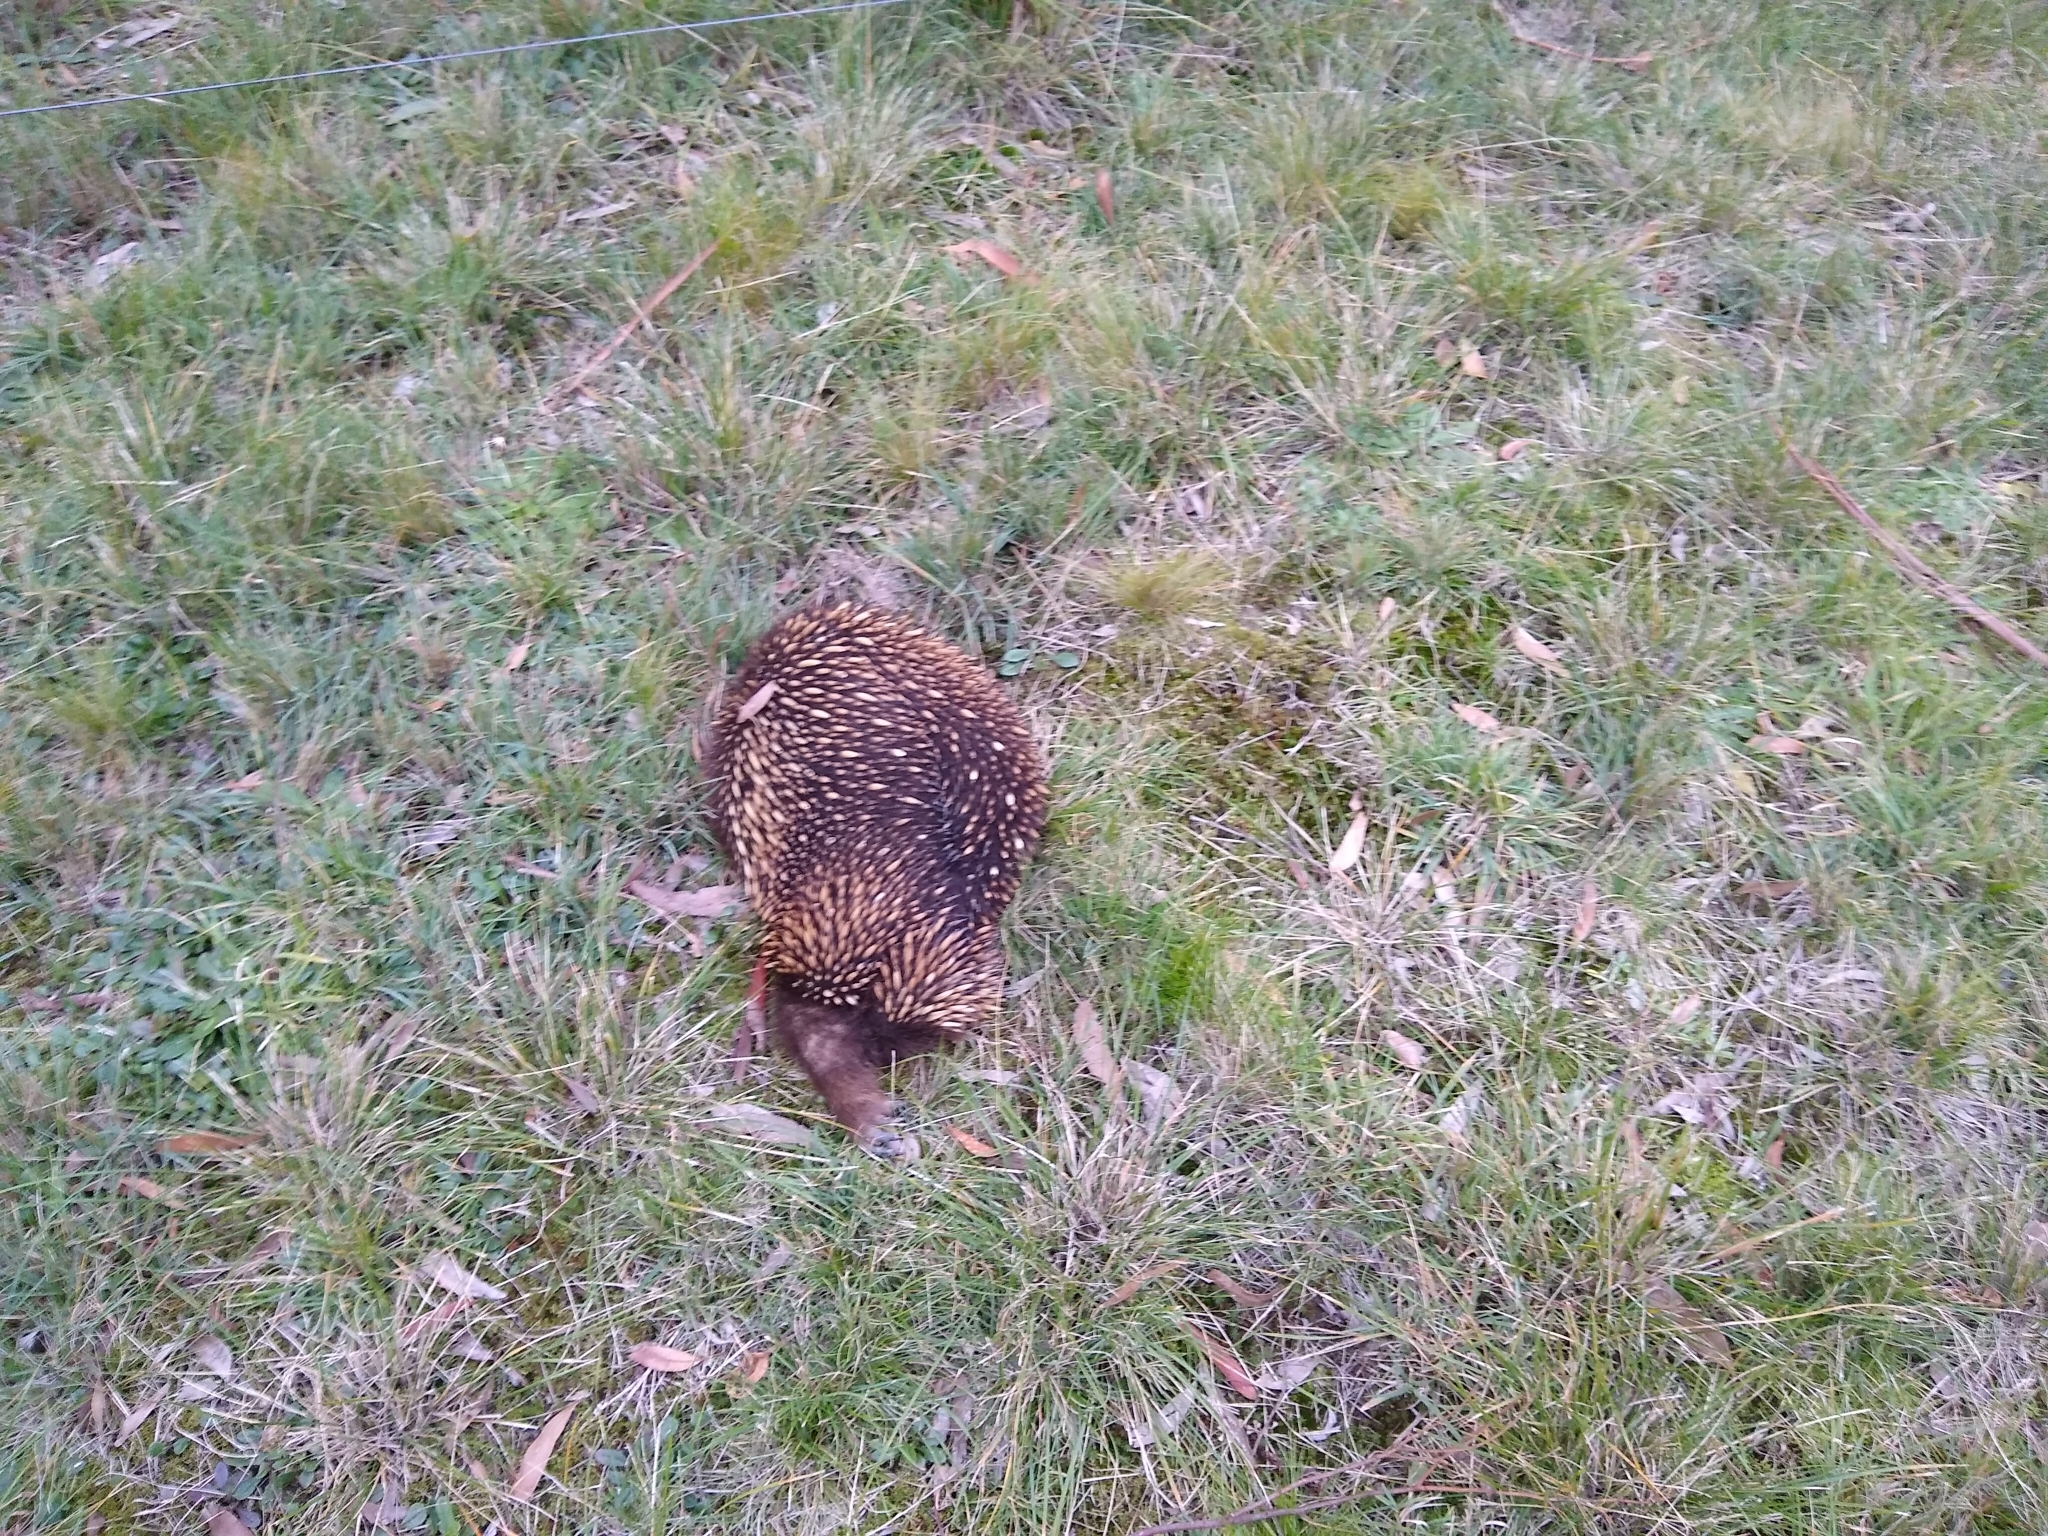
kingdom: Animalia
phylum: Chordata
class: Mammalia
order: Monotremata
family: Tachyglossidae
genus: Tachyglossus
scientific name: Tachyglossus aculeatus
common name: Short-beaked echidna
